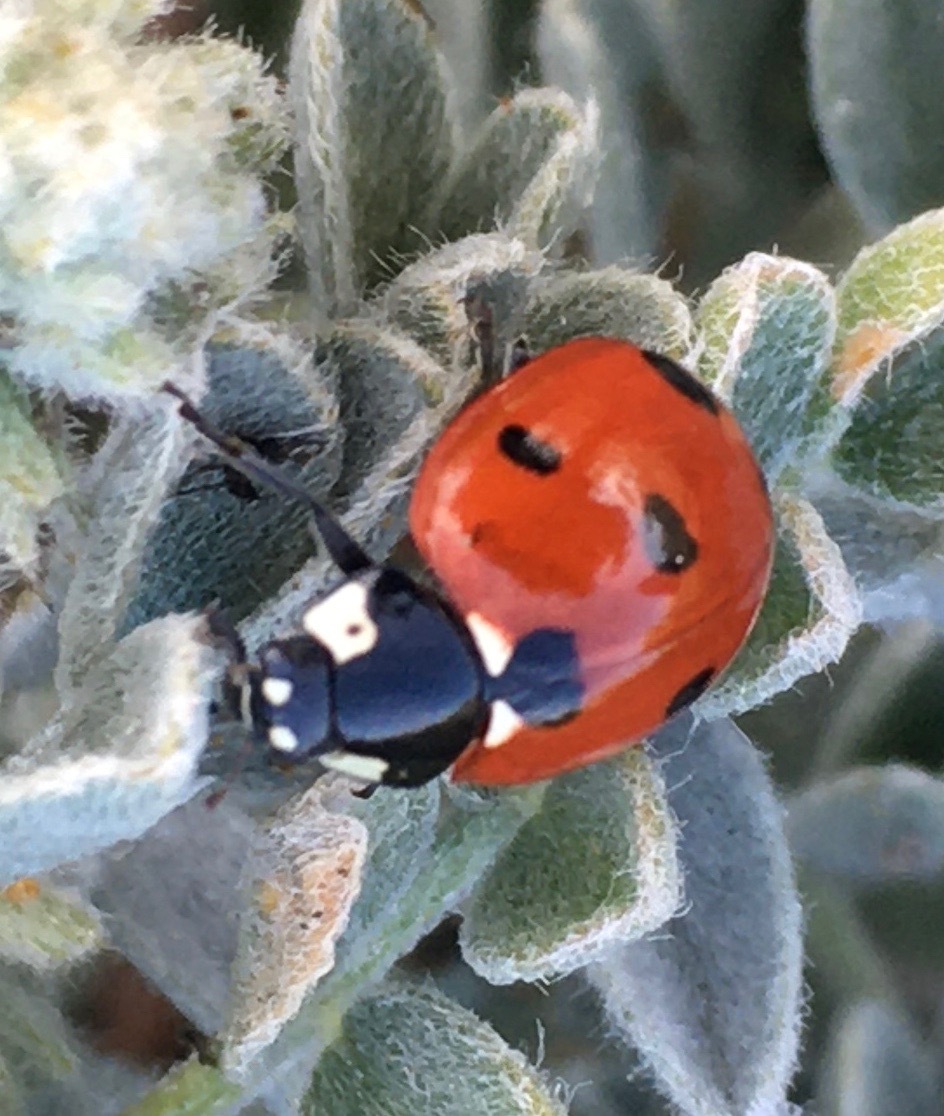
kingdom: Animalia
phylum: Arthropoda
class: Insecta
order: Coleoptera
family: Coccinellidae
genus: Coccinella
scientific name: Coccinella septempunctata
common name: Sevenspotted lady beetle
